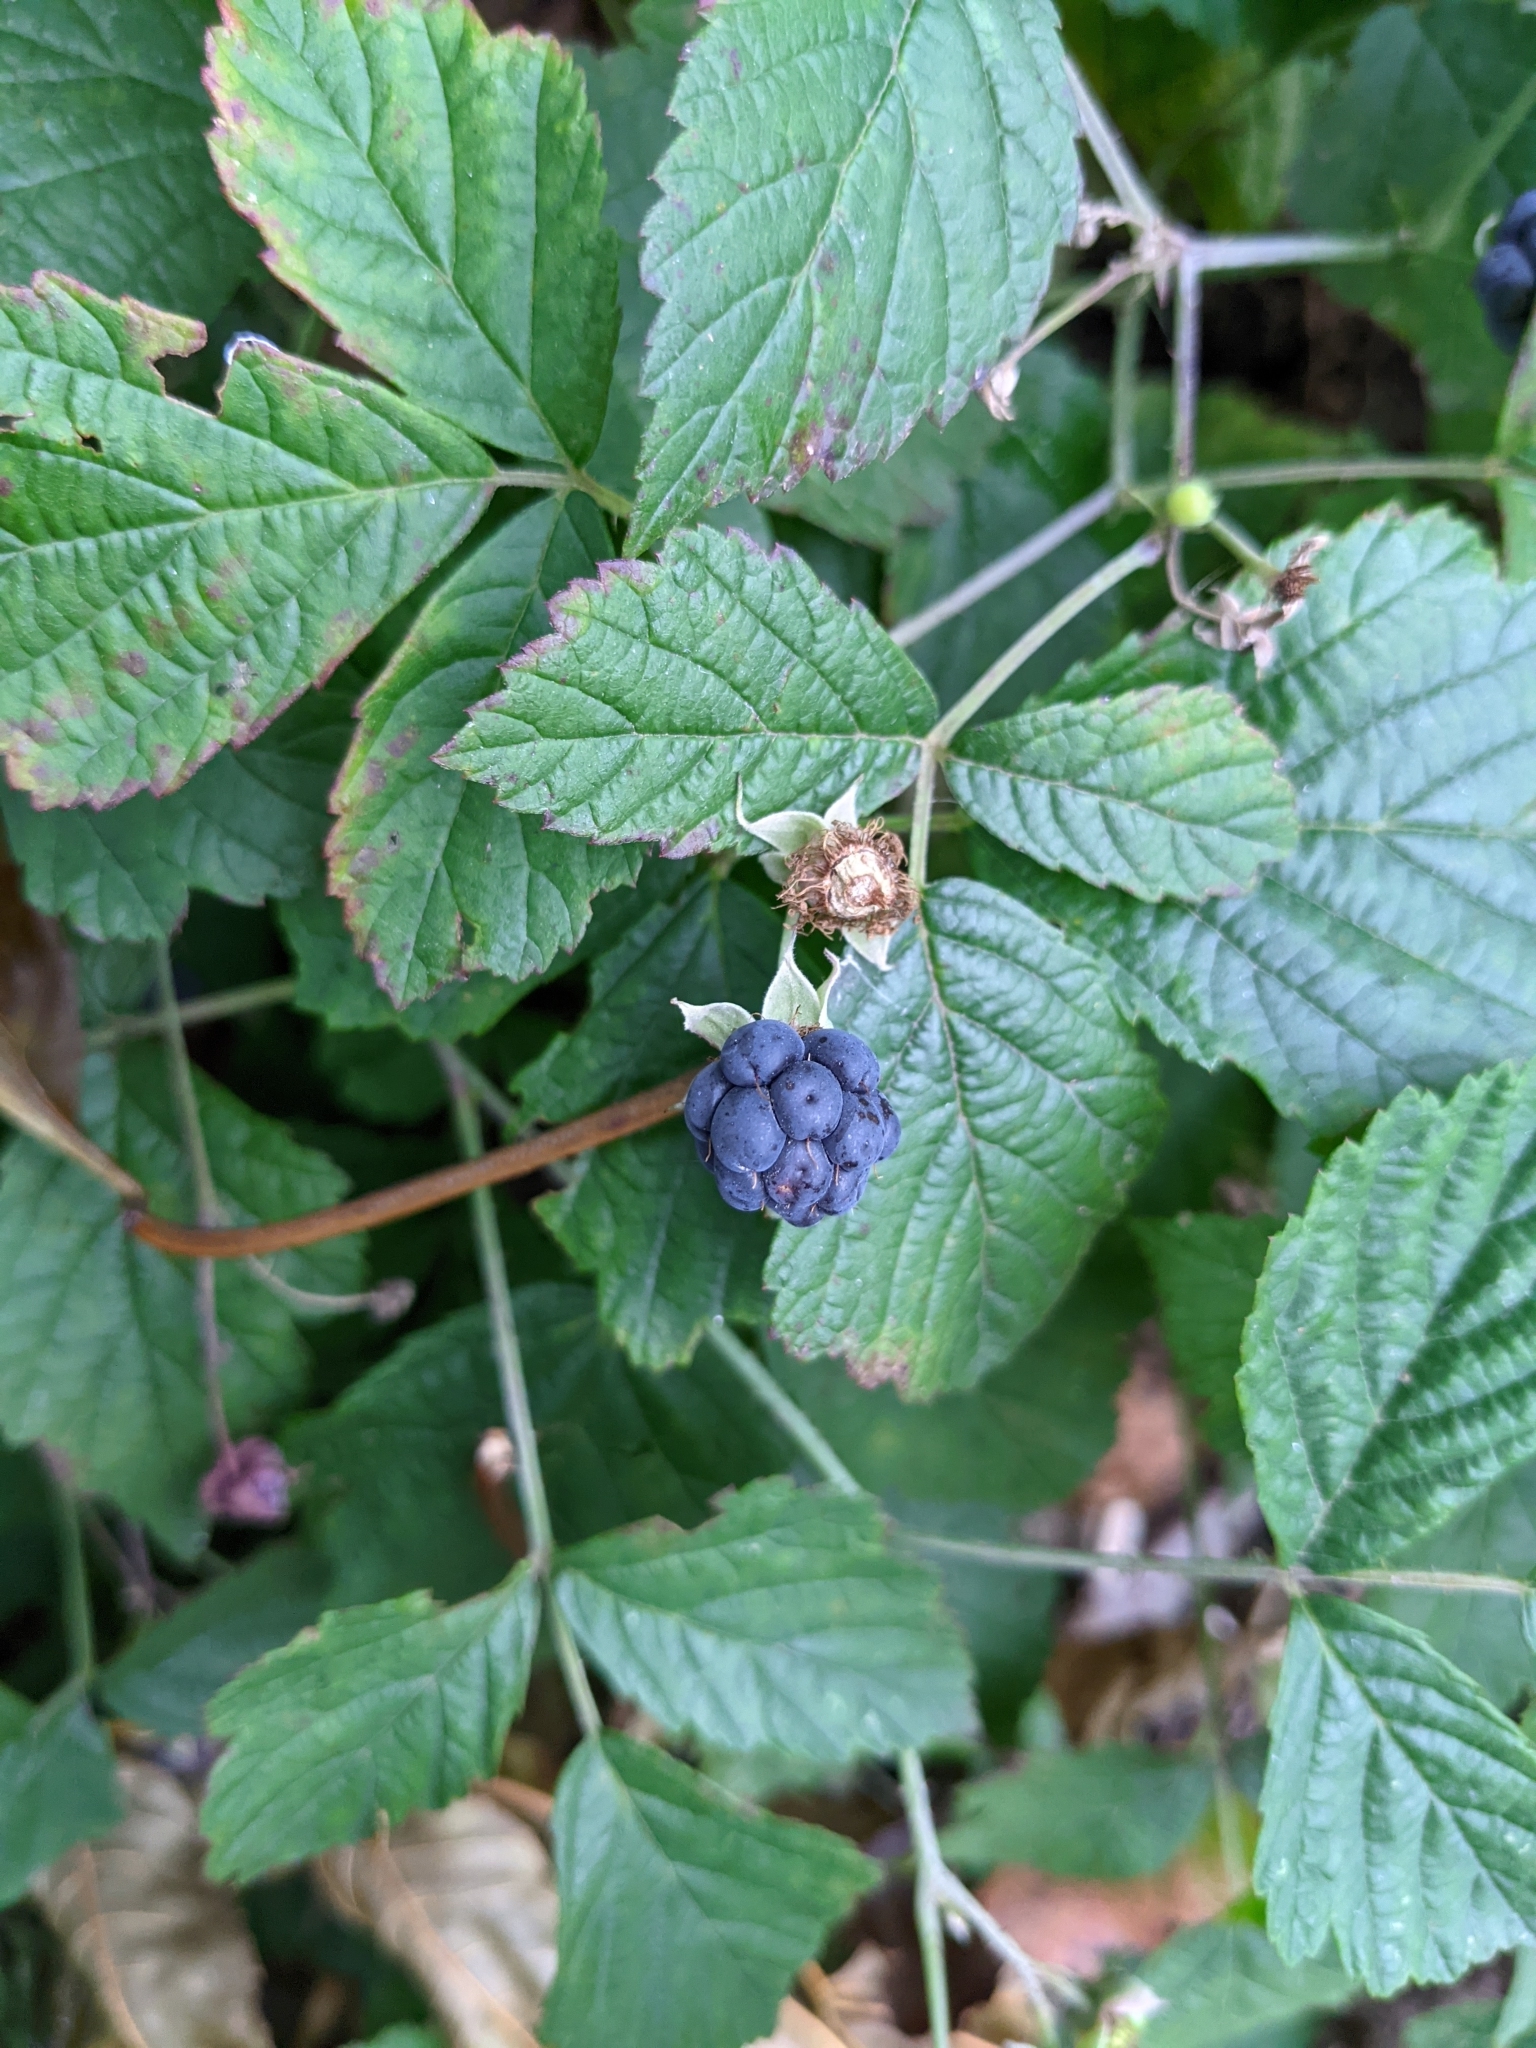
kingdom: Plantae
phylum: Tracheophyta
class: Magnoliopsida
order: Rosales
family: Rosaceae
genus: Rubus
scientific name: Rubus caesius
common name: Dewberry
